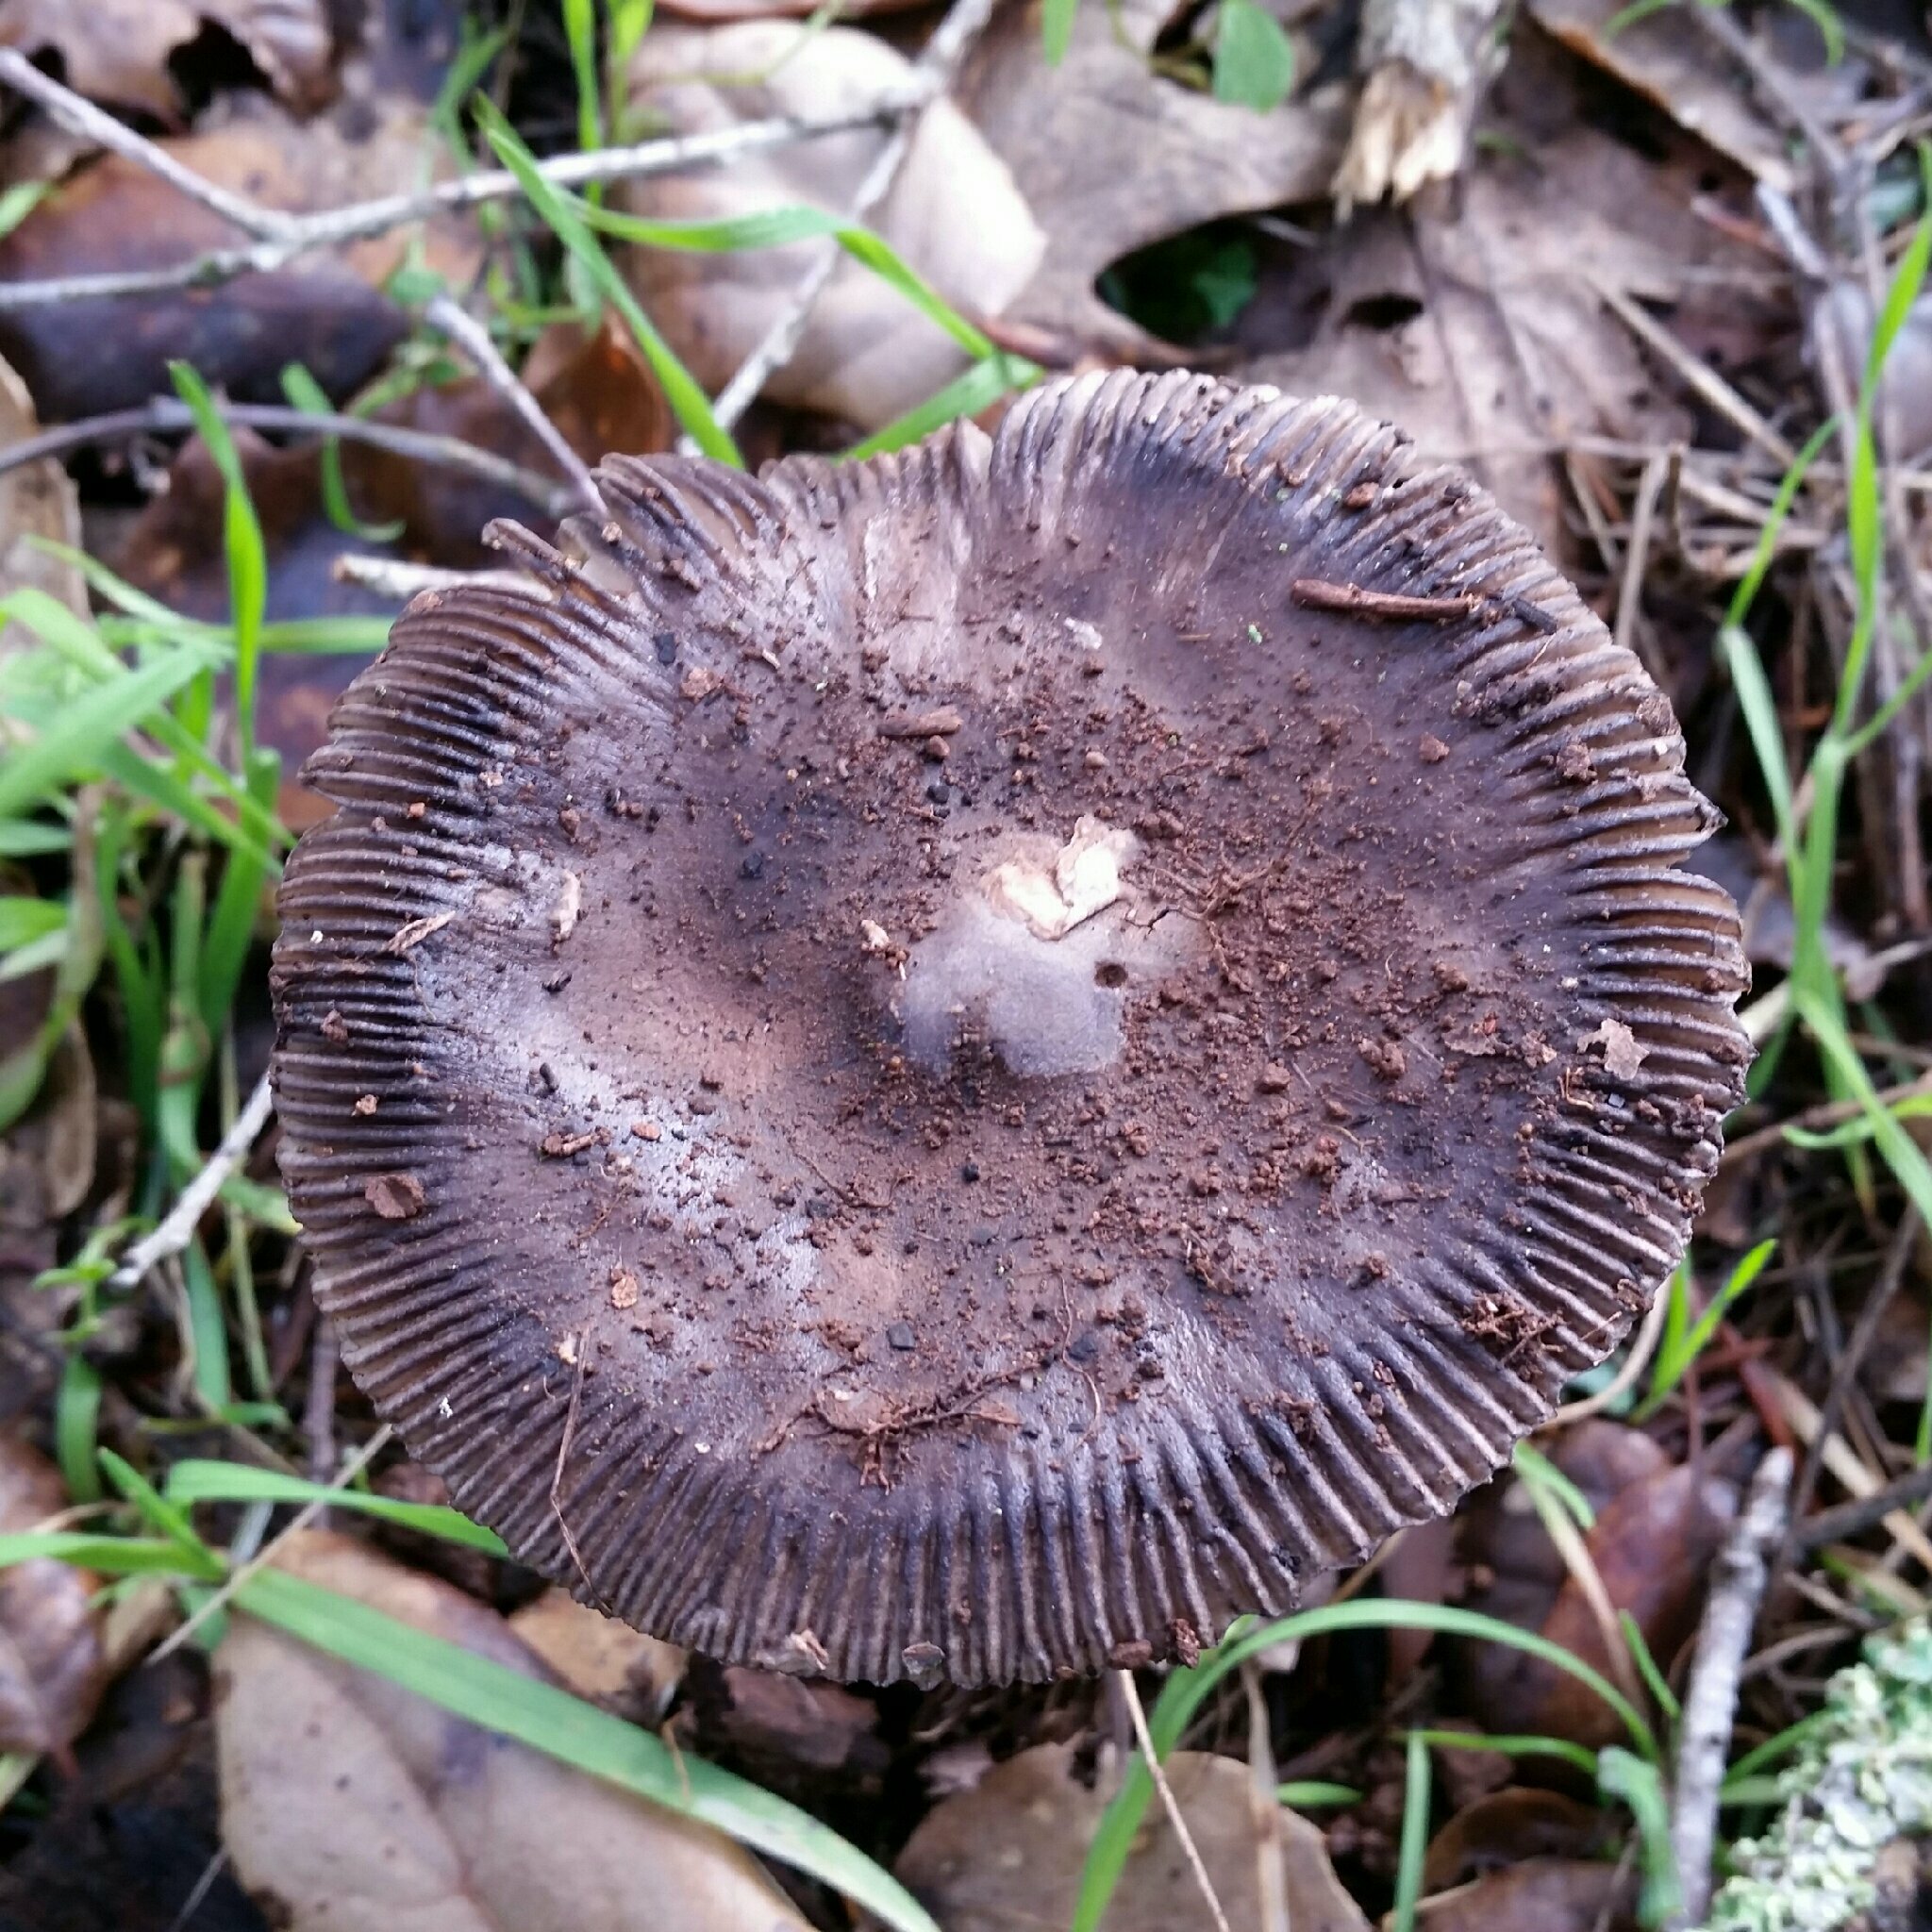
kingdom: Fungi
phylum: Basidiomycota
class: Agaricomycetes
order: Agaricales
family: Amanitaceae
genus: Amanita
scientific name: Amanita constricta
